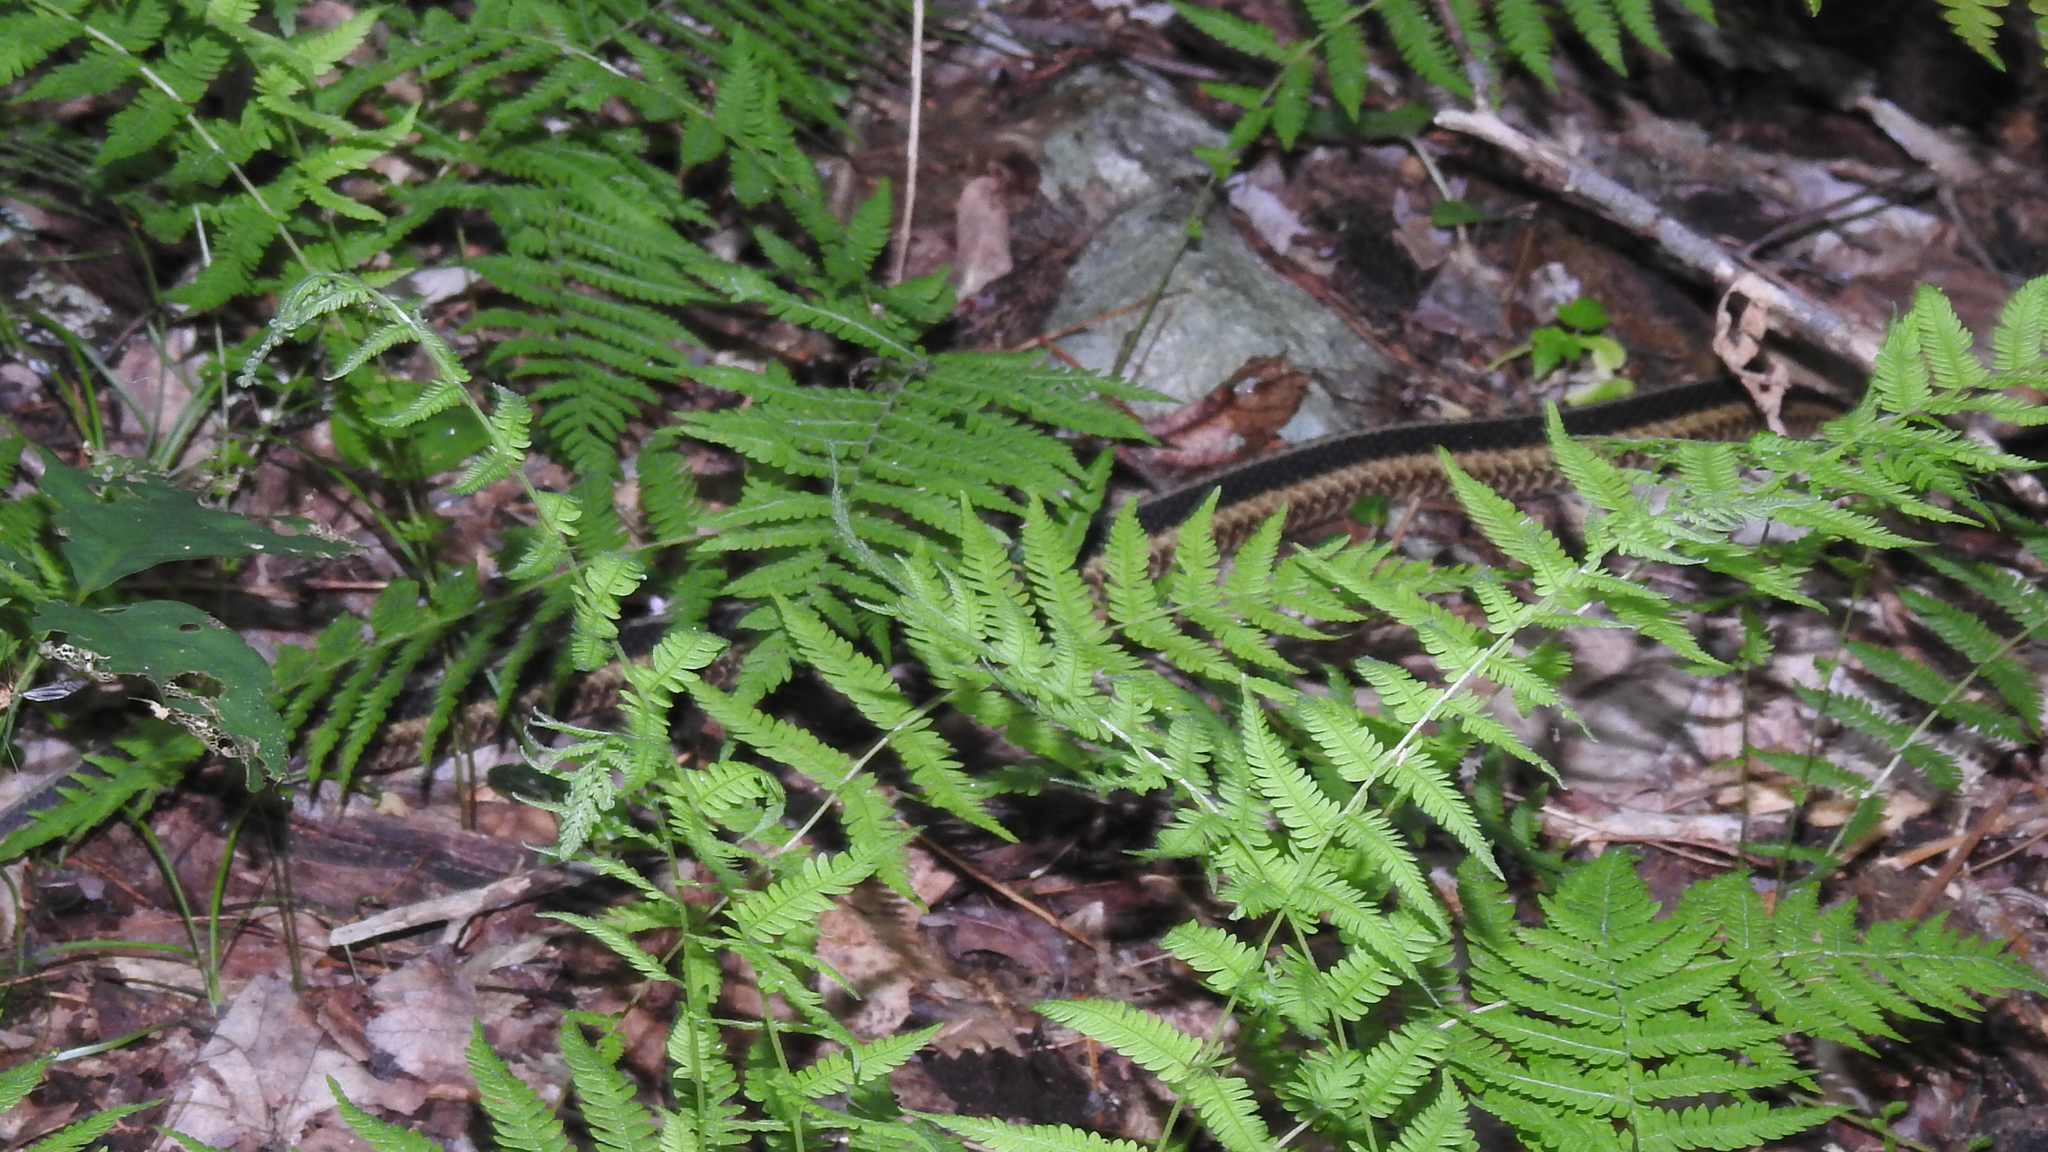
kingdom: Plantae
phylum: Tracheophyta
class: Polypodiopsida
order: Polypodiales
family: Thelypteridaceae
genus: Amauropelta
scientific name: Amauropelta noveboracensis
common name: New york fern
